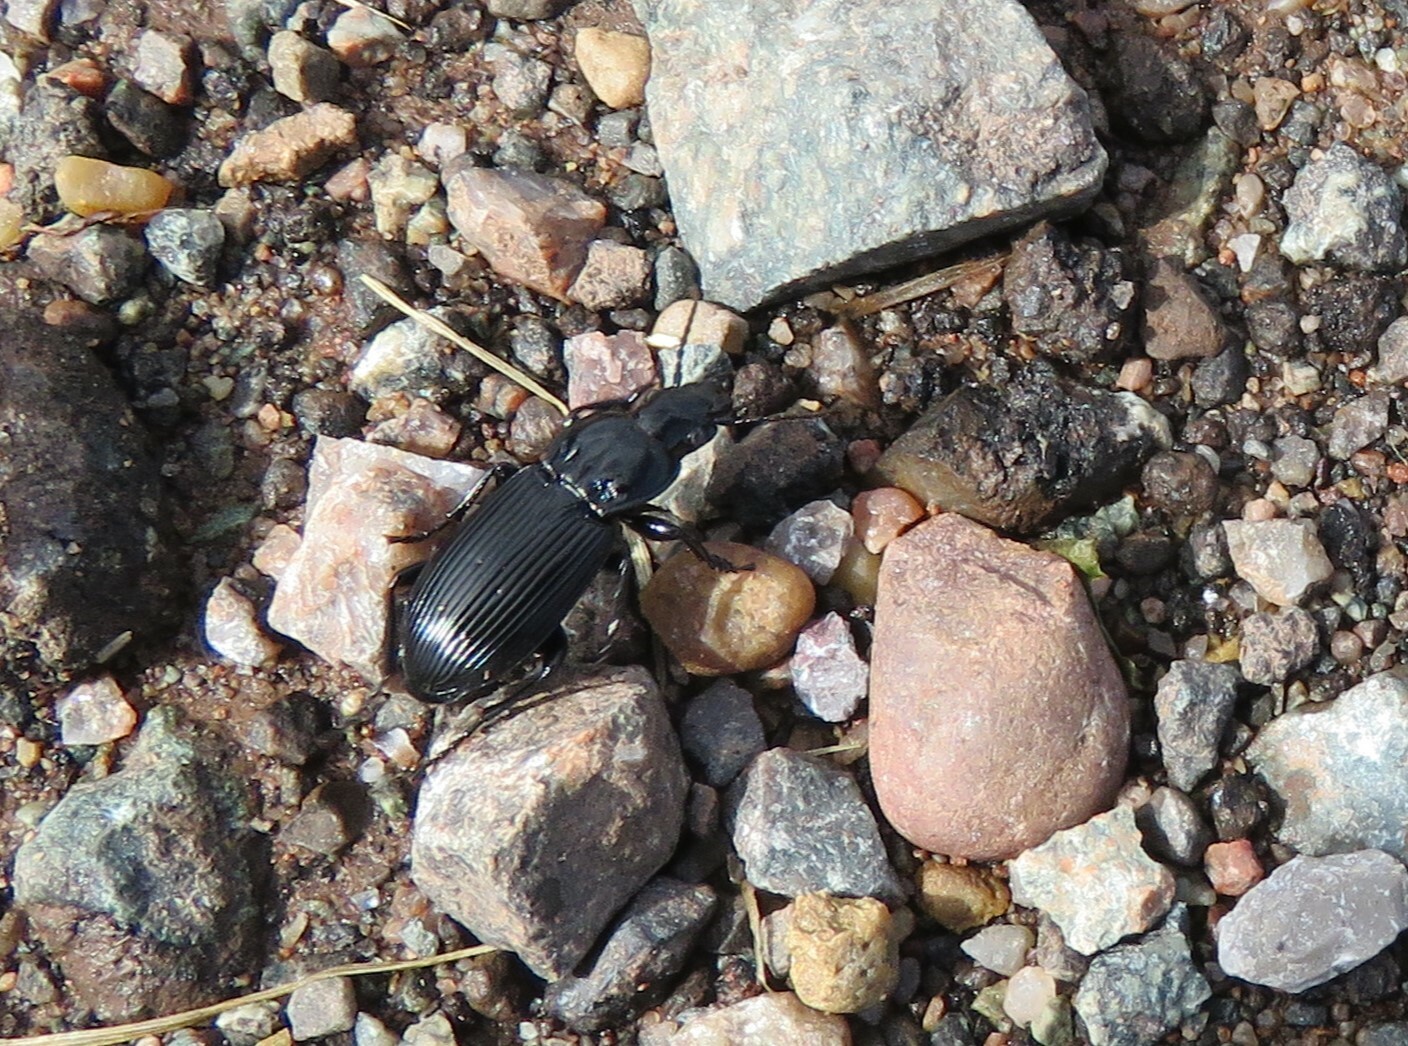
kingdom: Animalia
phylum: Arthropoda
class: Insecta
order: Coleoptera
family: Carabidae
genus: Pterostichus
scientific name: Pterostichus melanarius
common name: European dark harp ground beetle
